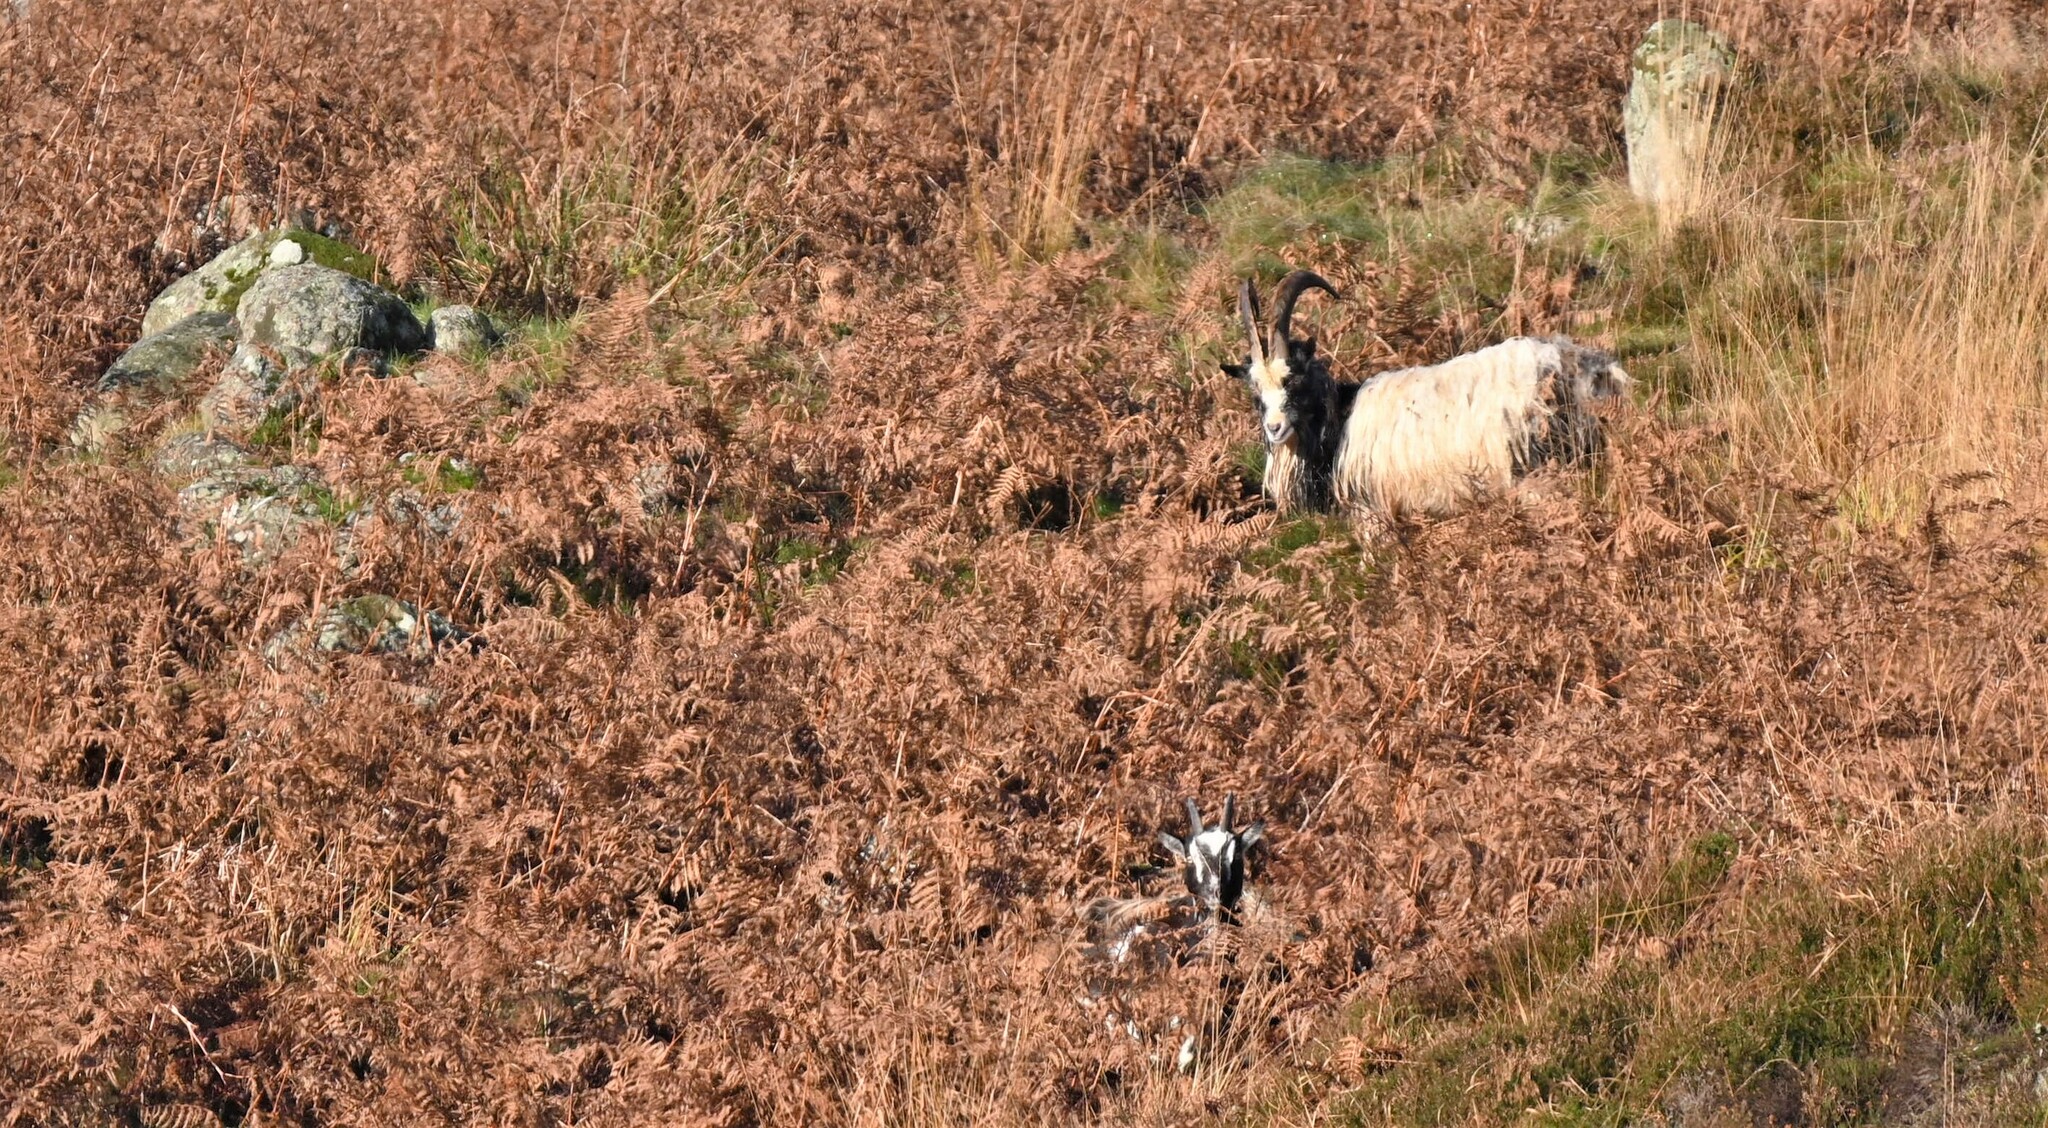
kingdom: Animalia
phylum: Chordata
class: Mammalia
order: Artiodactyla
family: Bovidae
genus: Capra
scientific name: Capra hircus
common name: Domestic goat
